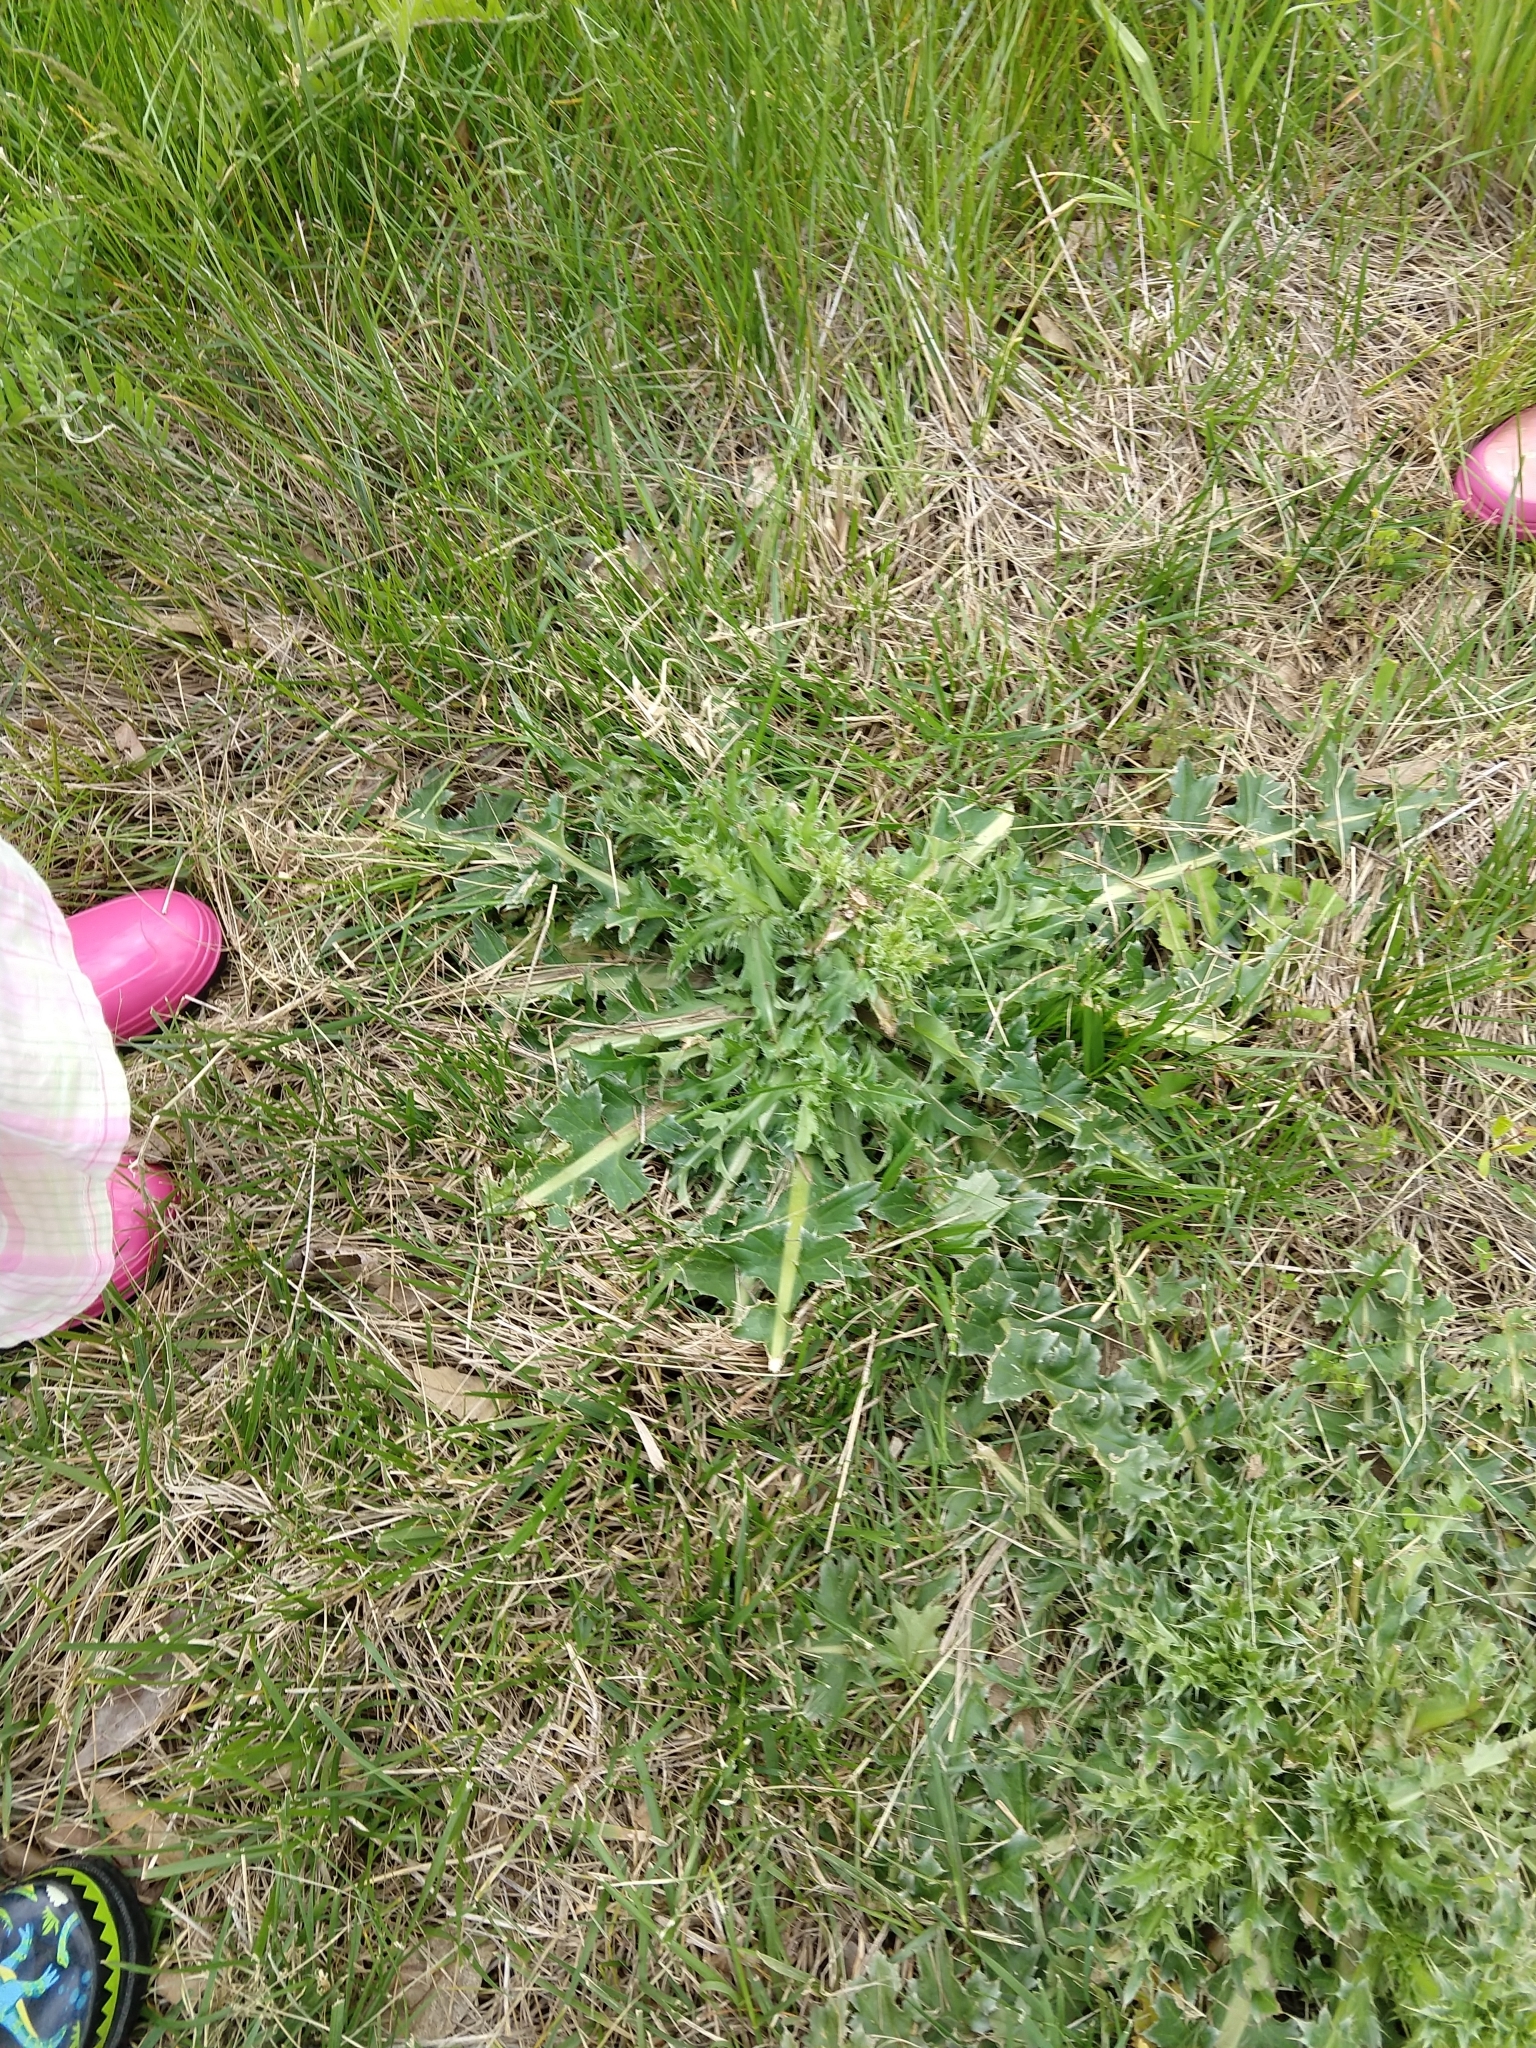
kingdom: Plantae
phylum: Tracheophyta
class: Magnoliopsida
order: Asterales
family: Asteraceae
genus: Carduus
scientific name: Carduus nutans
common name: Musk thistle
